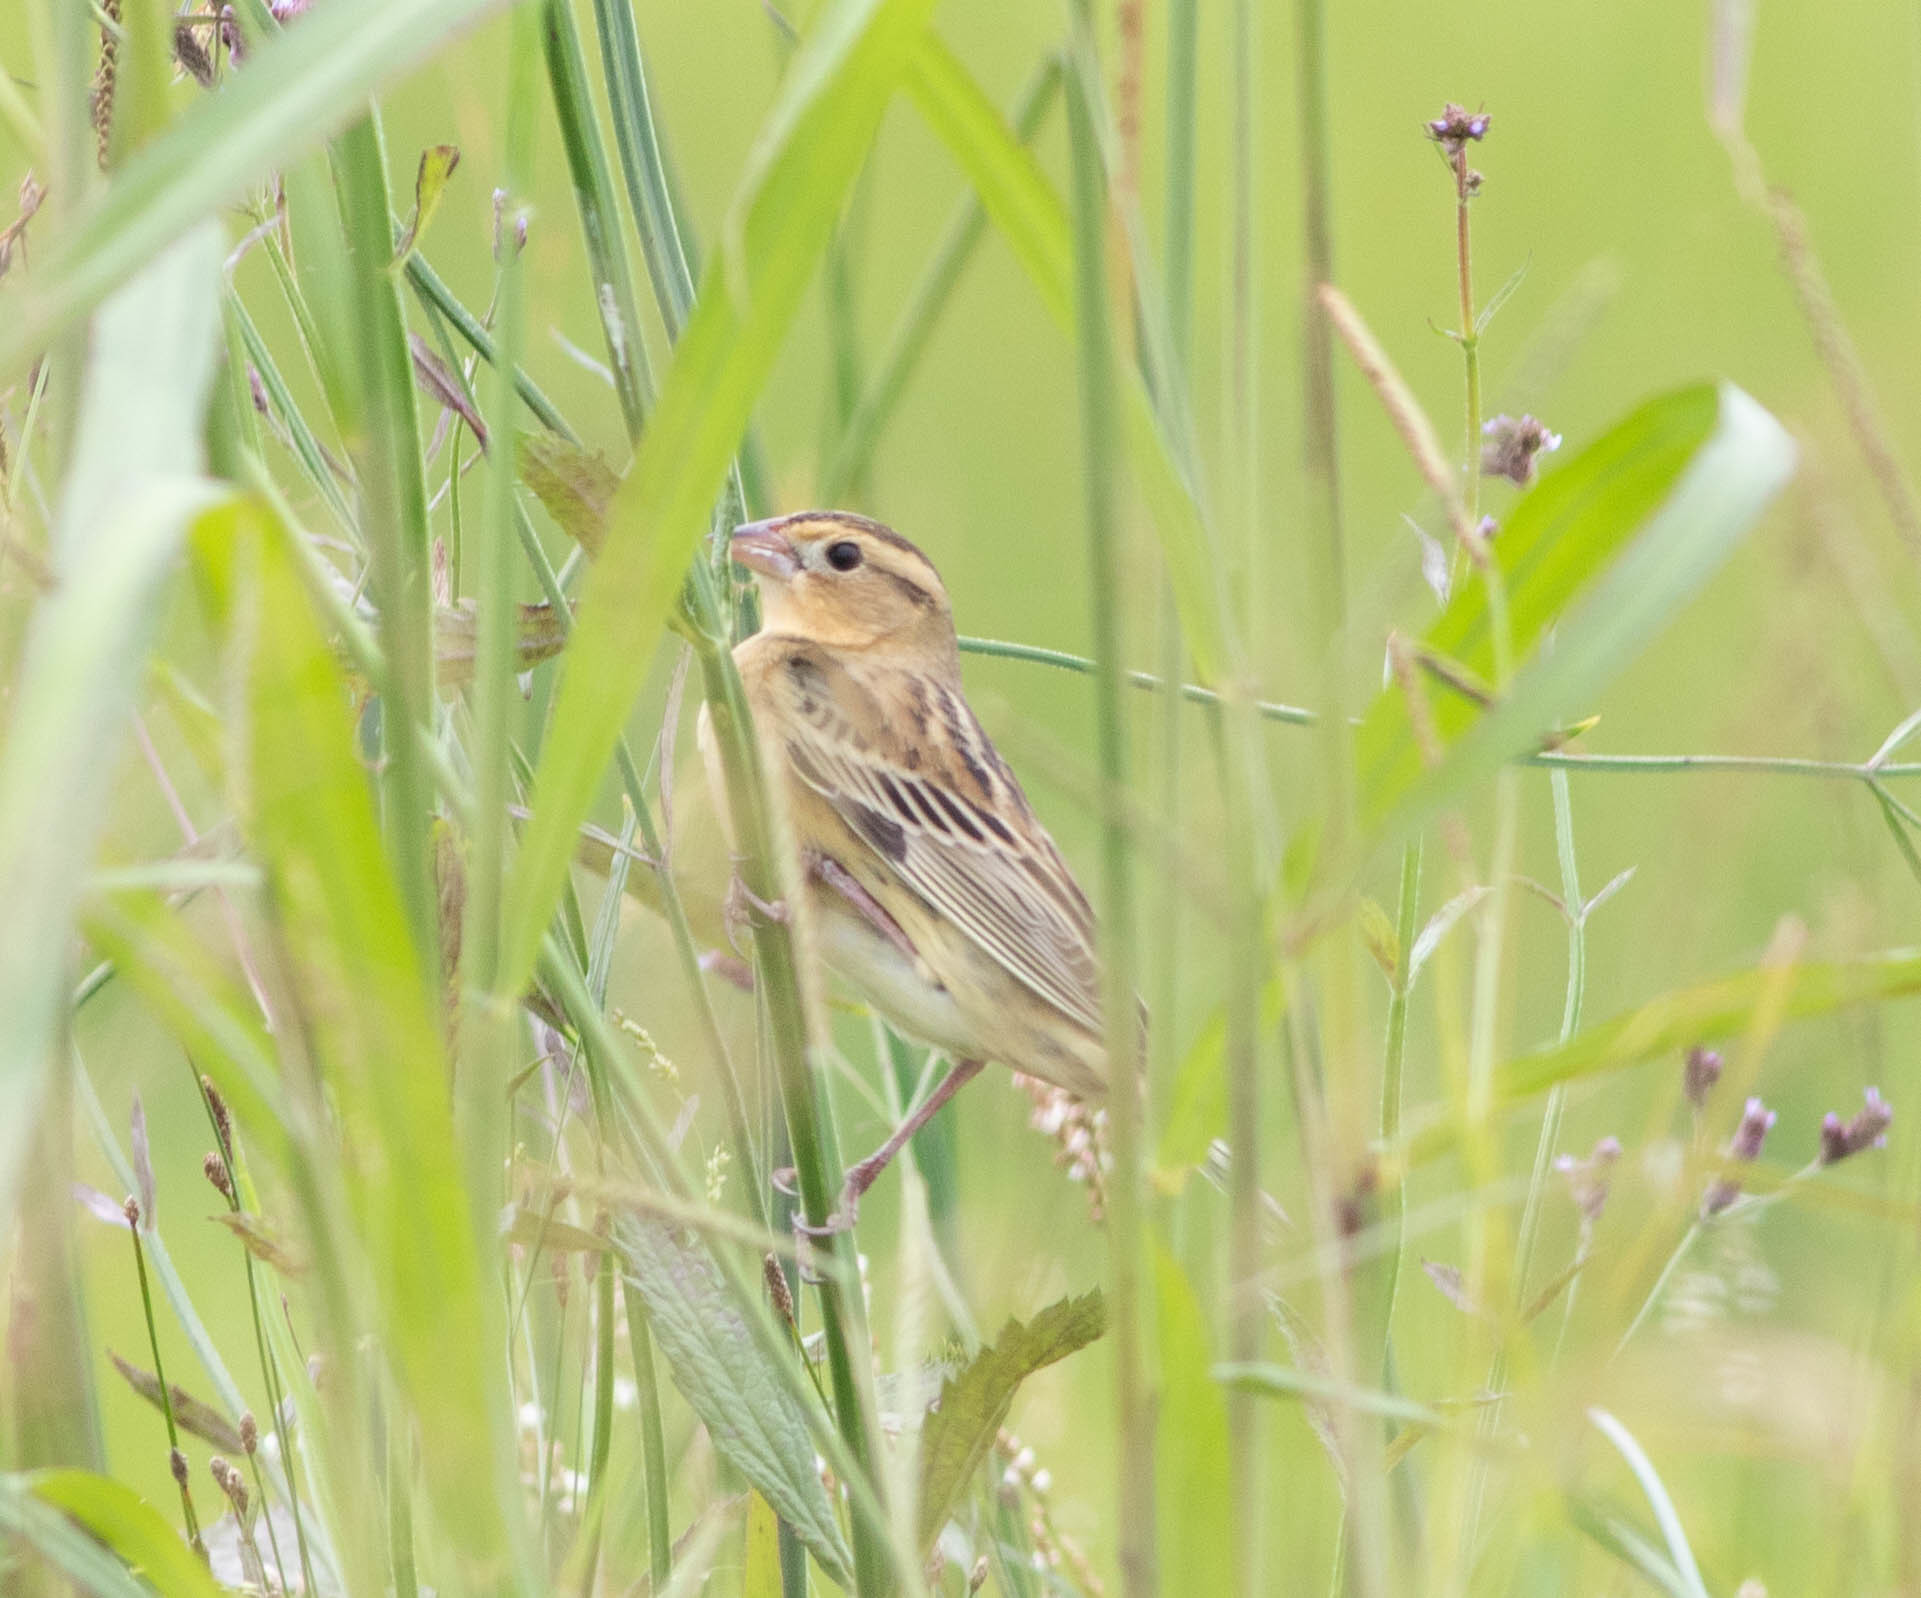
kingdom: Animalia
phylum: Chordata
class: Aves
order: Passeriformes
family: Icteridae
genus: Dolichonyx
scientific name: Dolichonyx oryzivorus
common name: Bobolink
